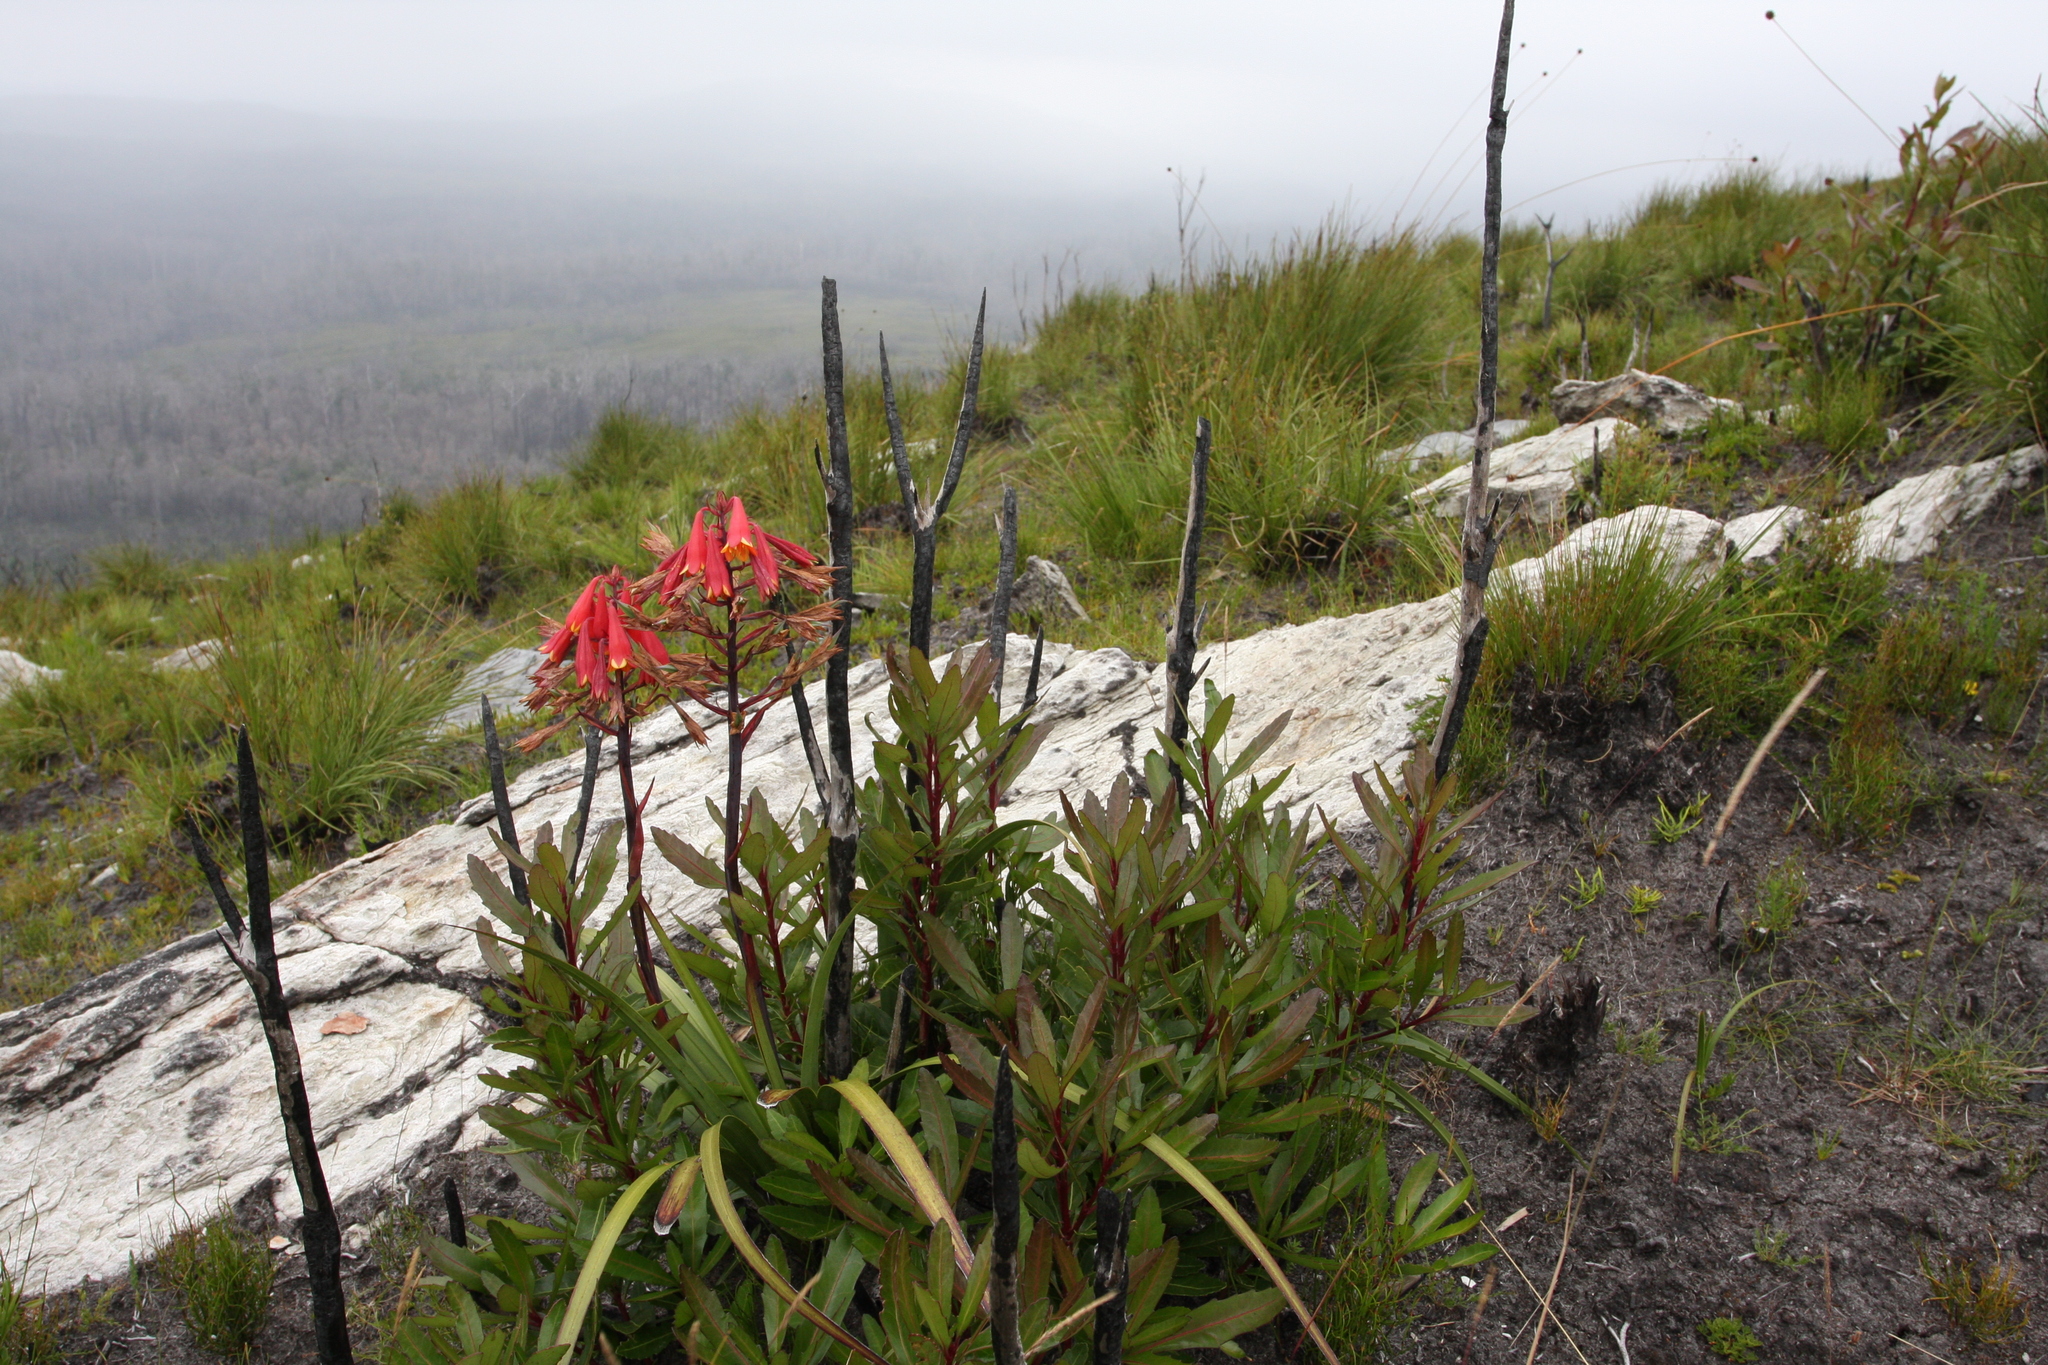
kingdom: Plantae
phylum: Tracheophyta
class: Liliopsida
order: Asparagales
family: Blandfordiaceae
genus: Blandfordia
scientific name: Blandfordia punicea
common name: Tasmanian christmas-bell
